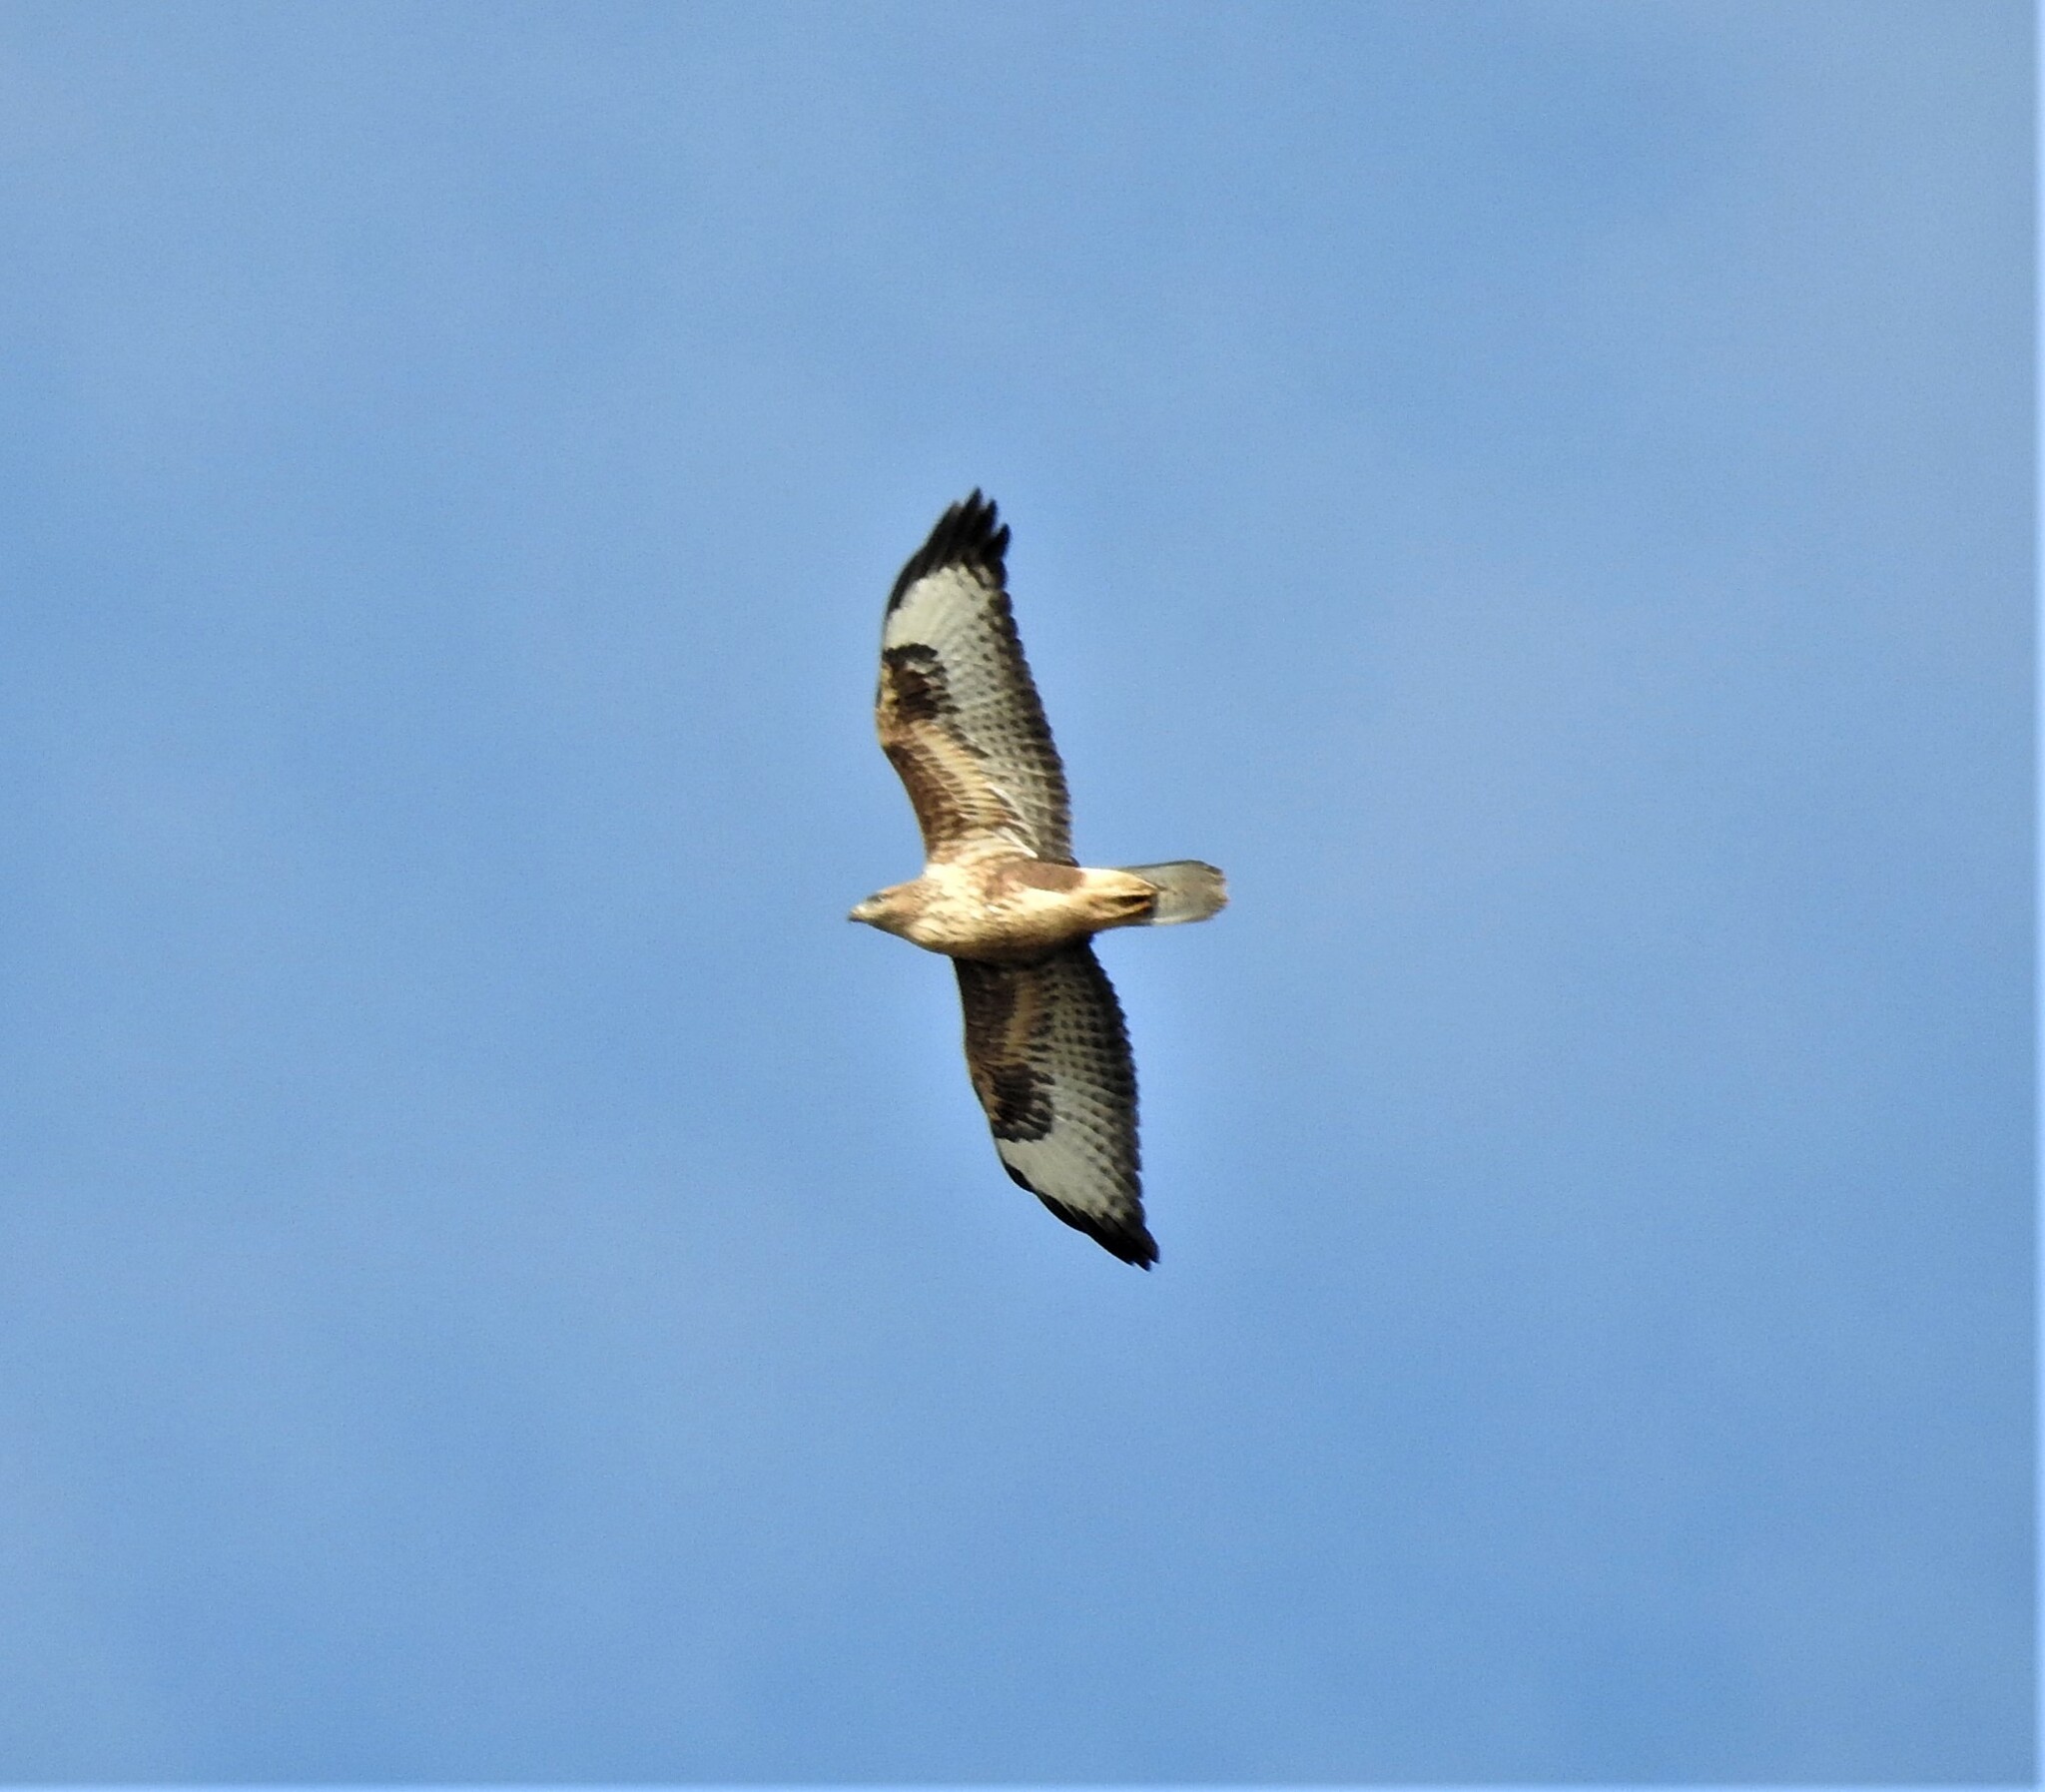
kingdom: Animalia
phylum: Chordata
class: Aves
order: Accipitriformes
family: Accipitridae
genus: Buteo
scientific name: Buteo buteo
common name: Common buzzard
